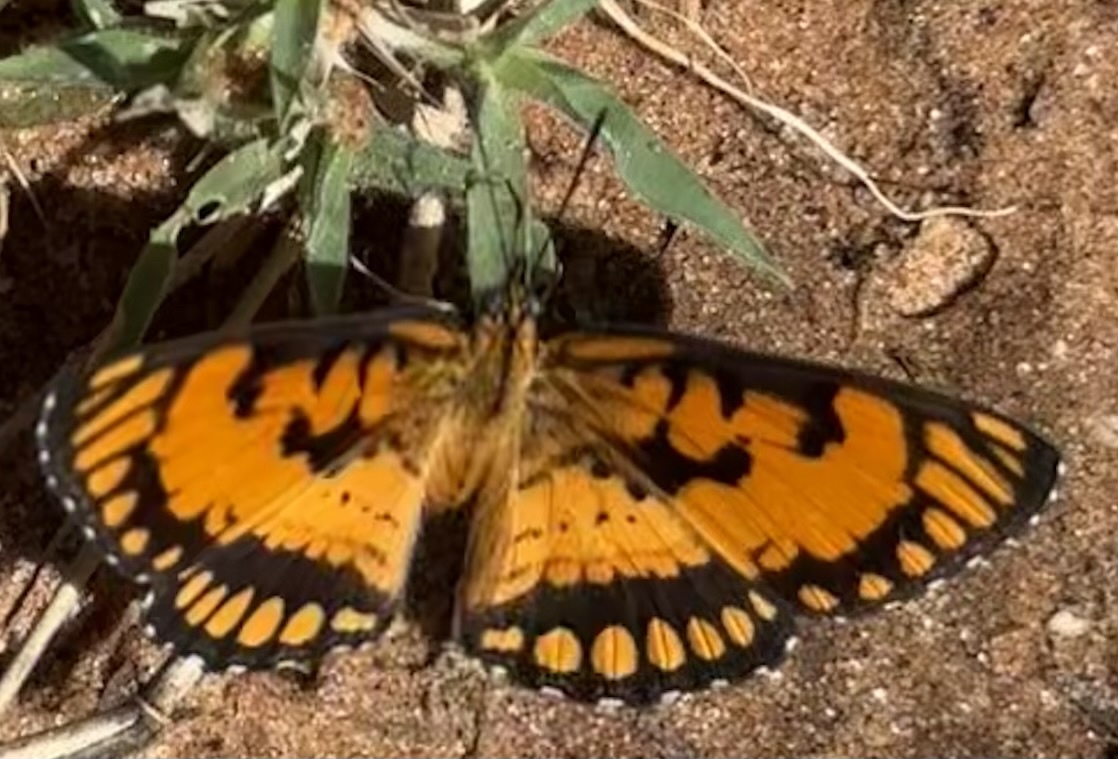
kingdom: Animalia
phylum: Arthropoda
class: Insecta
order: Lepidoptera
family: Nymphalidae
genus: Byblia
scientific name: Byblia ilithyia
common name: Spotted joker
